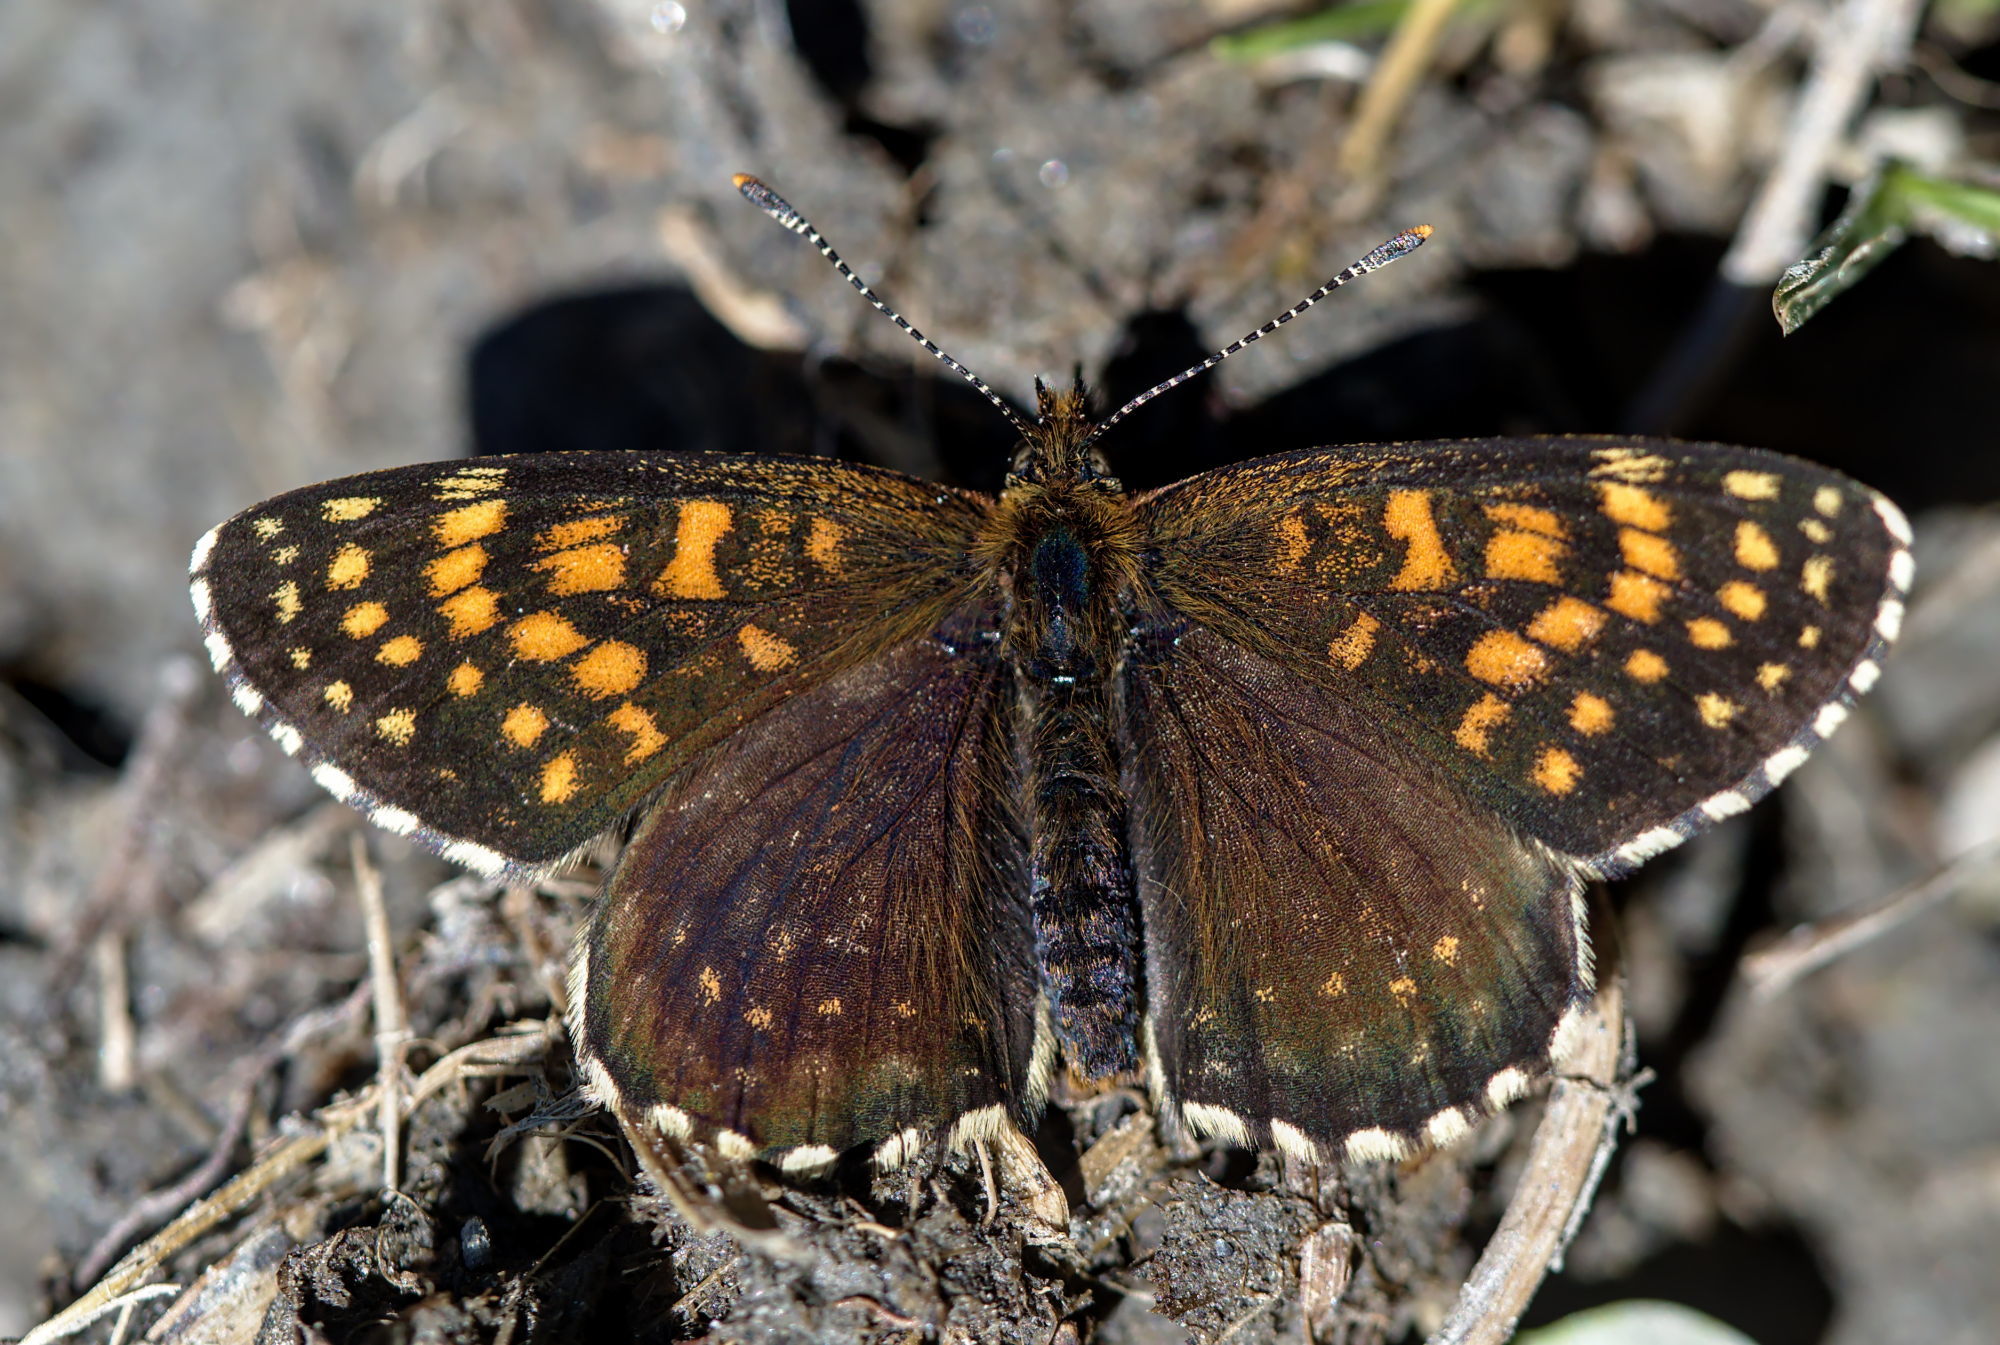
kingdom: Animalia
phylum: Arthropoda
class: Insecta
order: Lepidoptera
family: Nymphalidae
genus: Melitaea
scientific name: Melitaea diamina
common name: False heath fritillary
